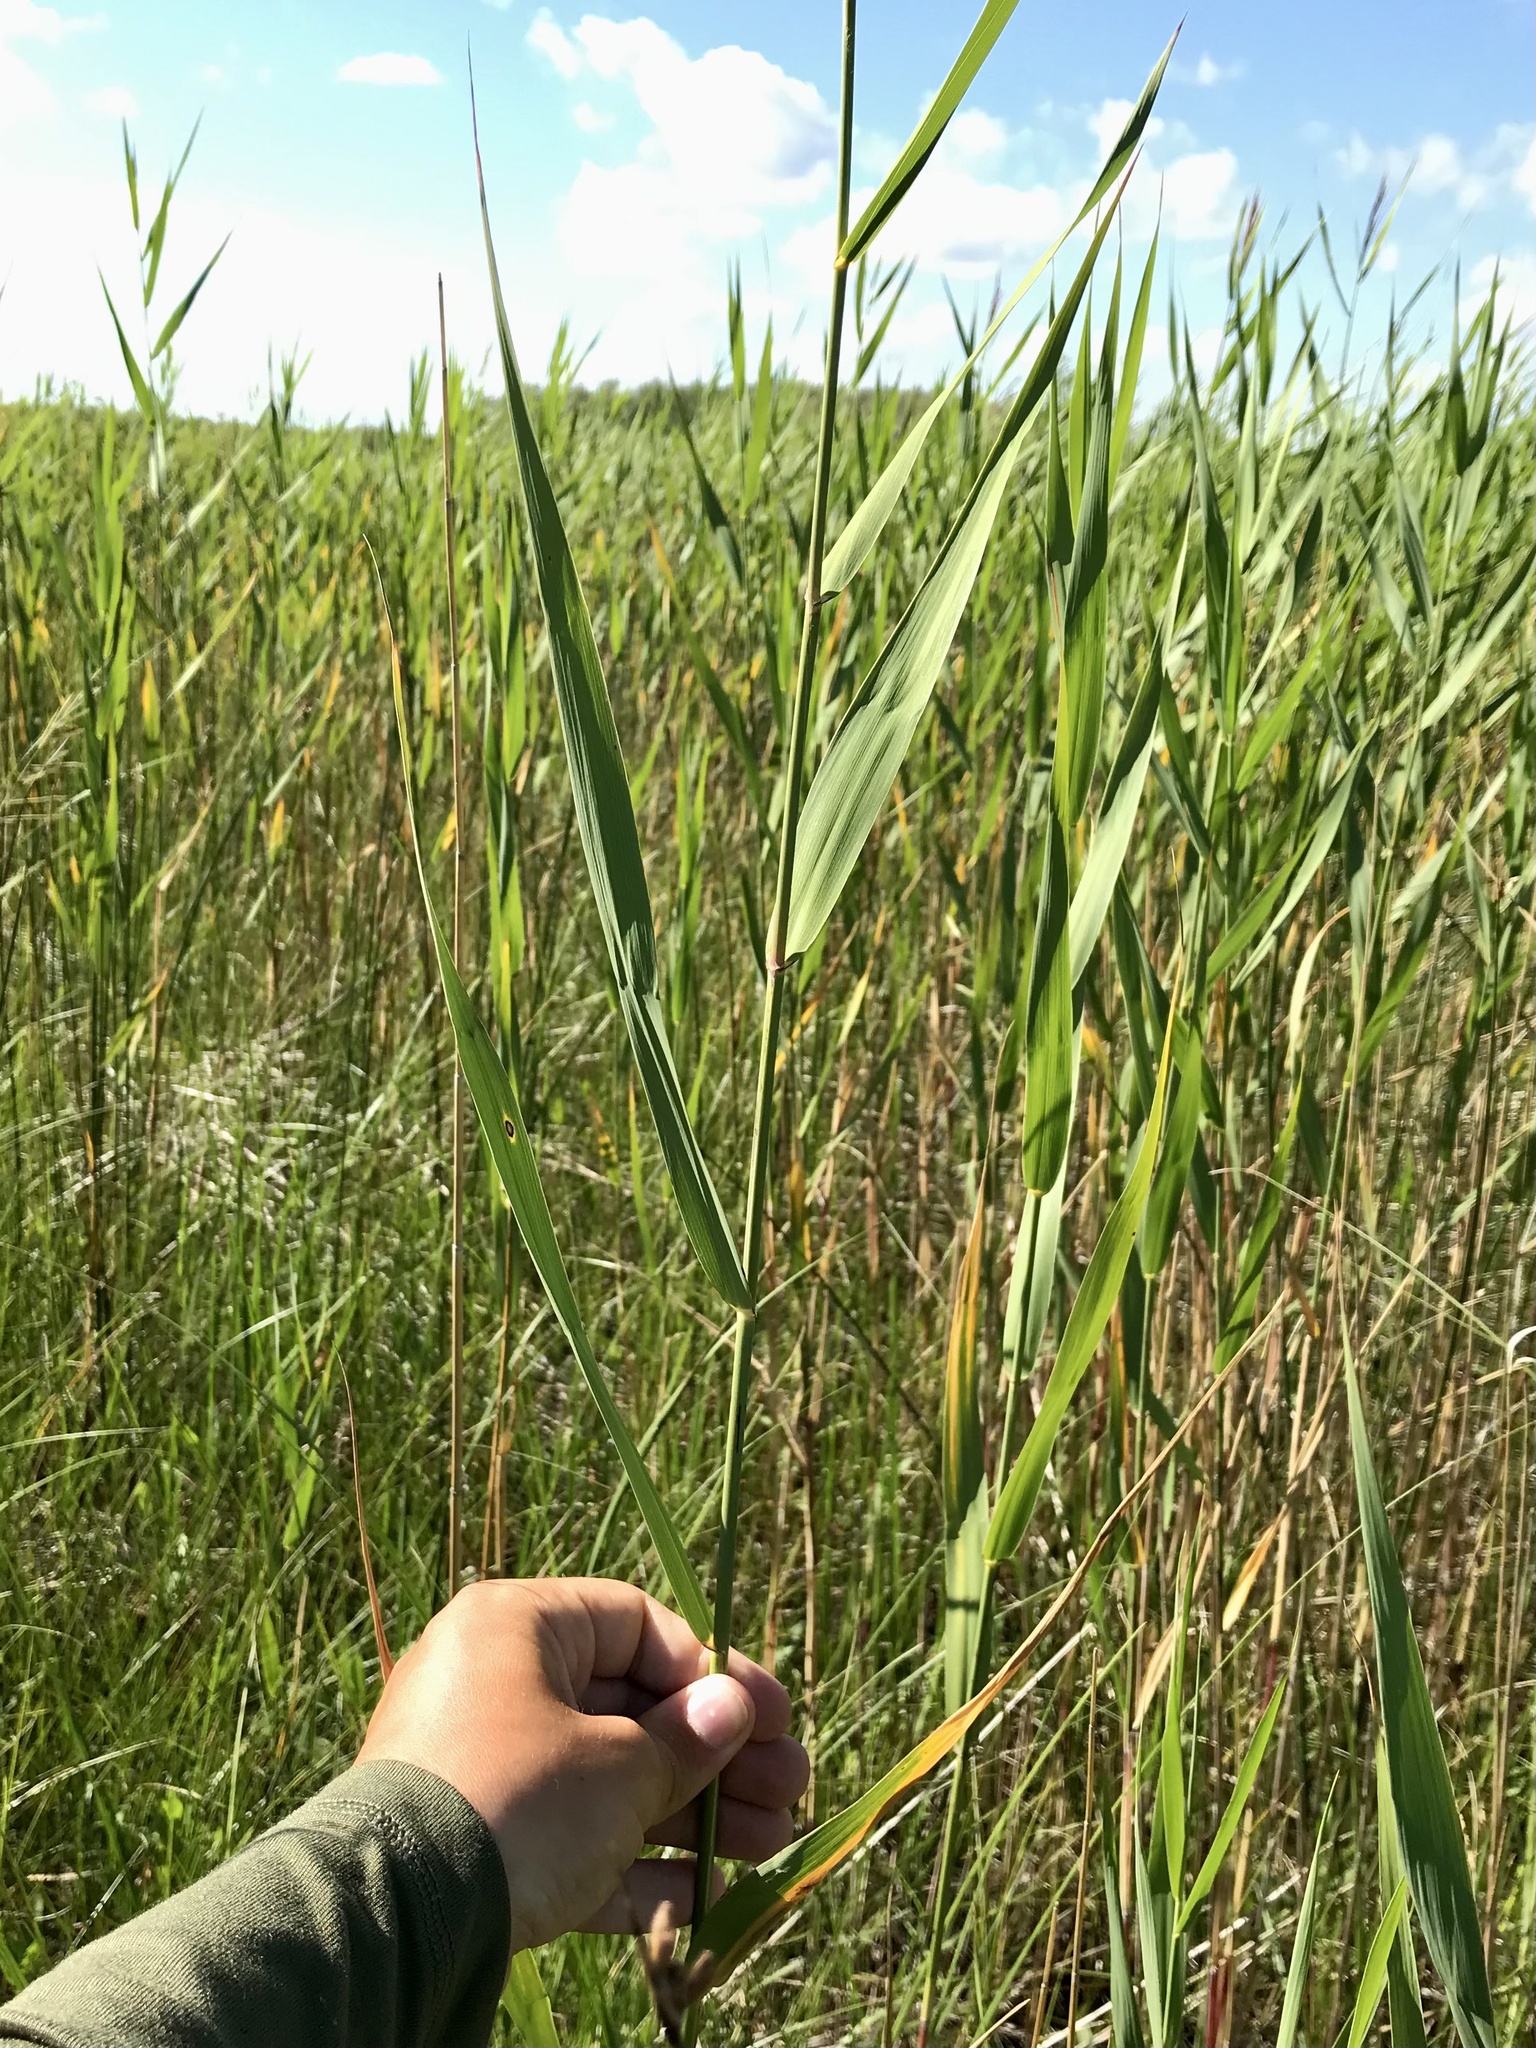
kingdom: Plantae
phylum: Tracheophyta
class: Liliopsida
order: Poales
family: Poaceae
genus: Phragmites
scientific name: Phragmites australis
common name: Common reed
